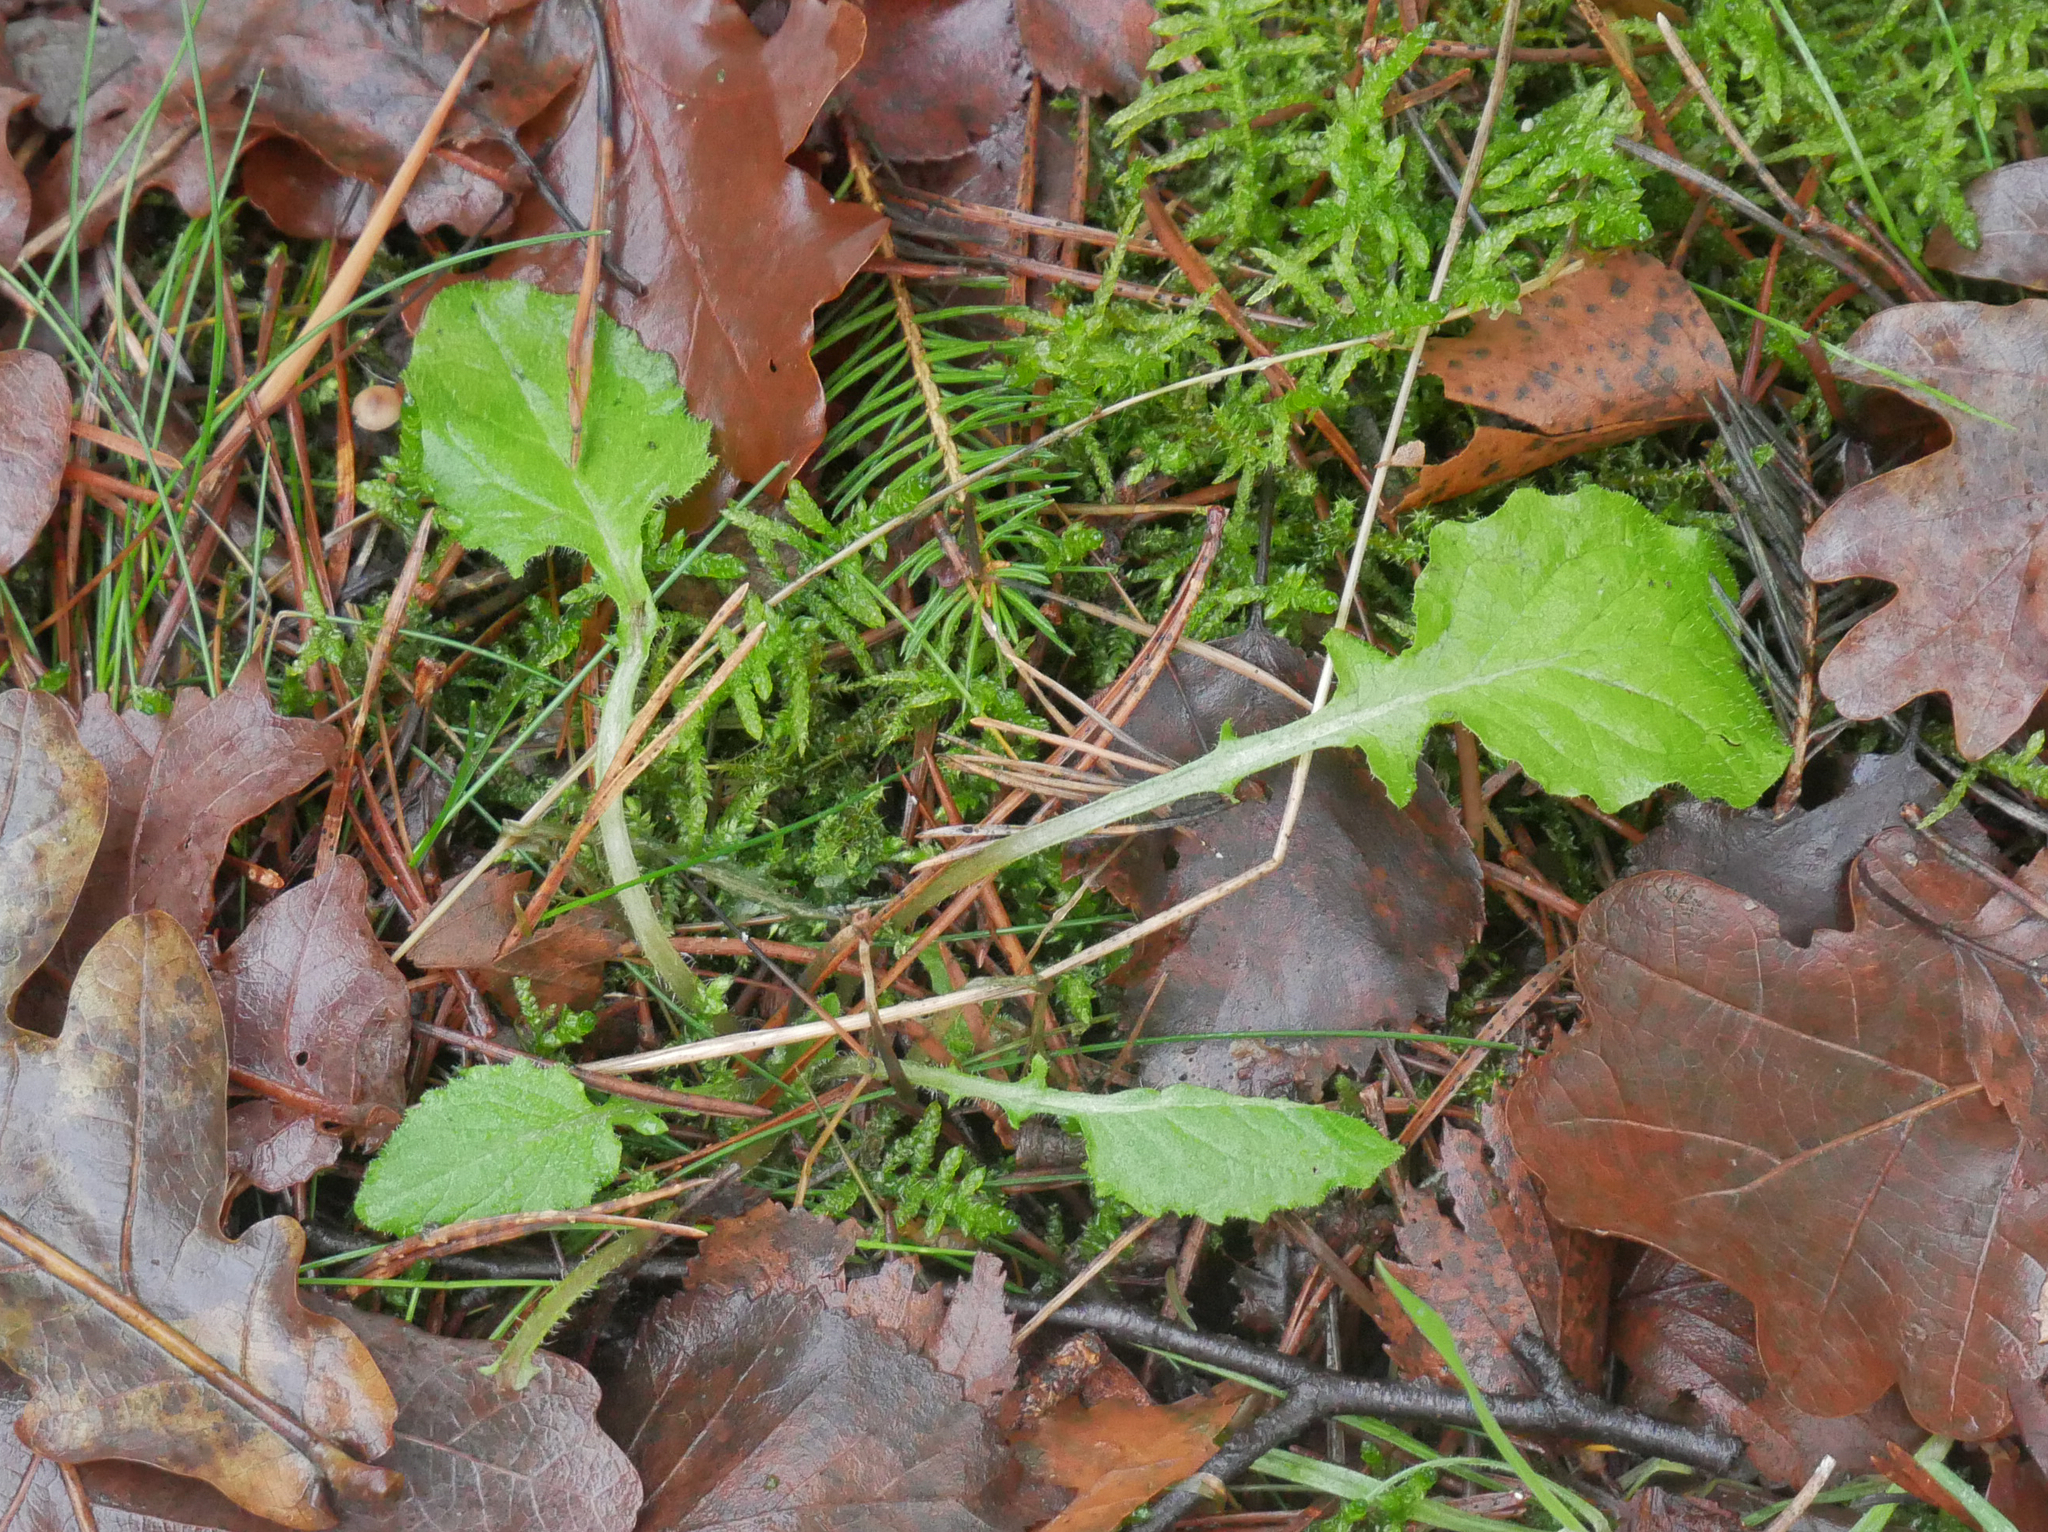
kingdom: Plantae
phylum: Tracheophyta
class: Magnoliopsida
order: Asterales
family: Asteraceae
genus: Lapsana
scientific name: Lapsana communis
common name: Nipplewort
